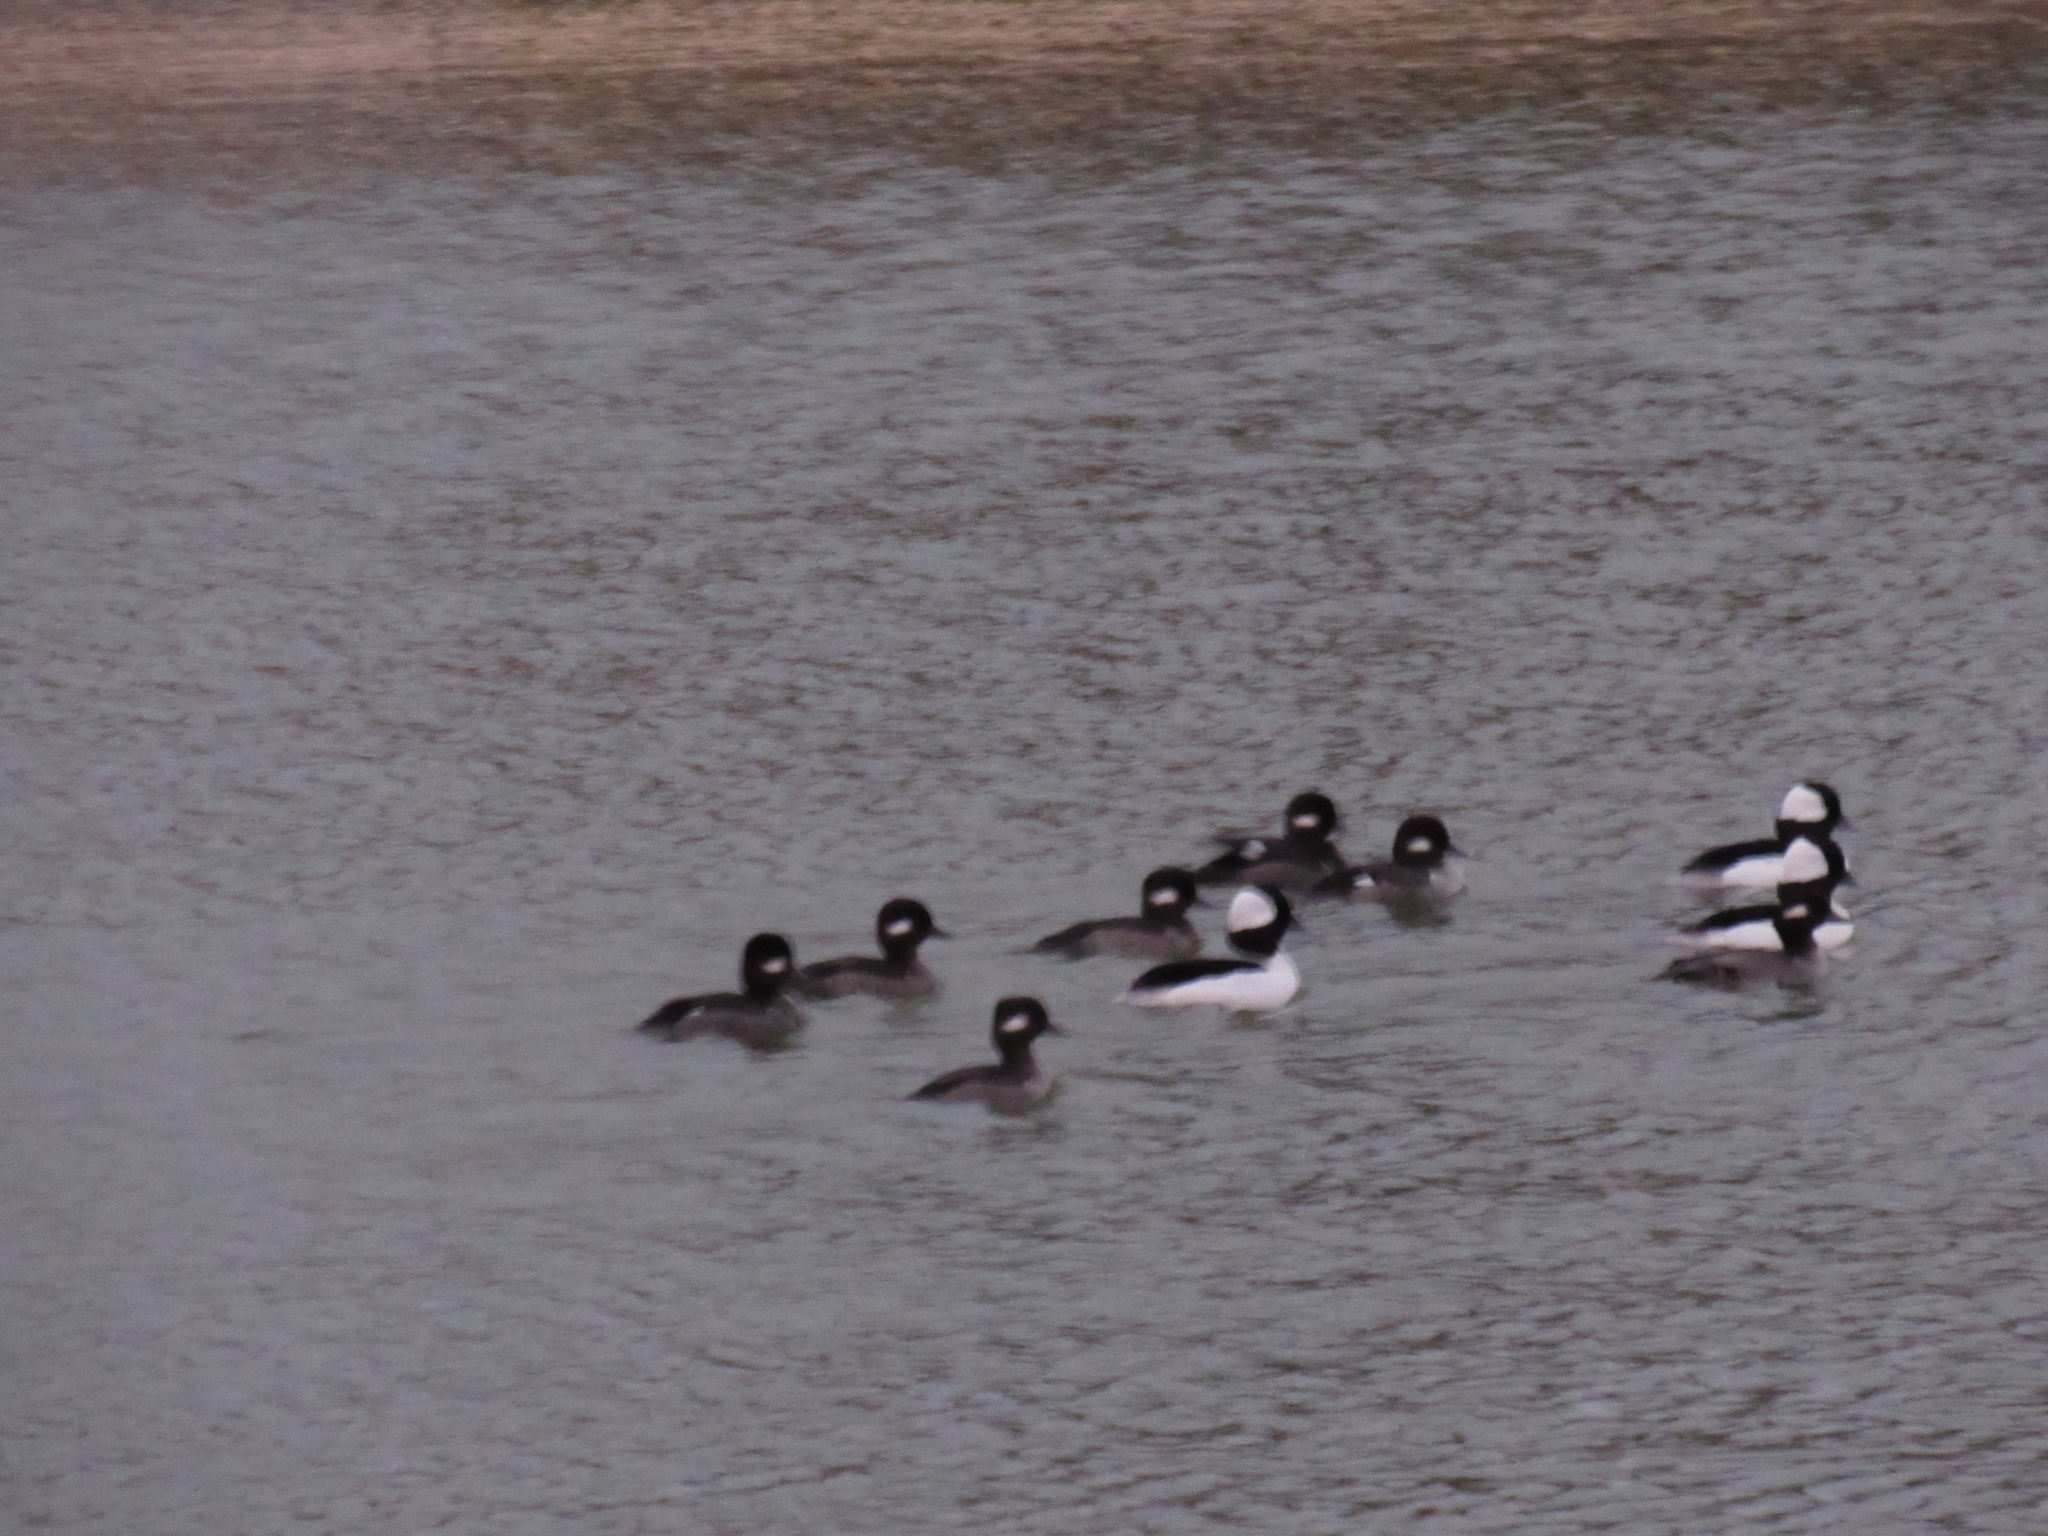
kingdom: Animalia
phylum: Chordata
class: Aves
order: Anseriformes
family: Anatidae
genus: Bucephala
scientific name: Bucephala albeola
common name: Bufflehead
